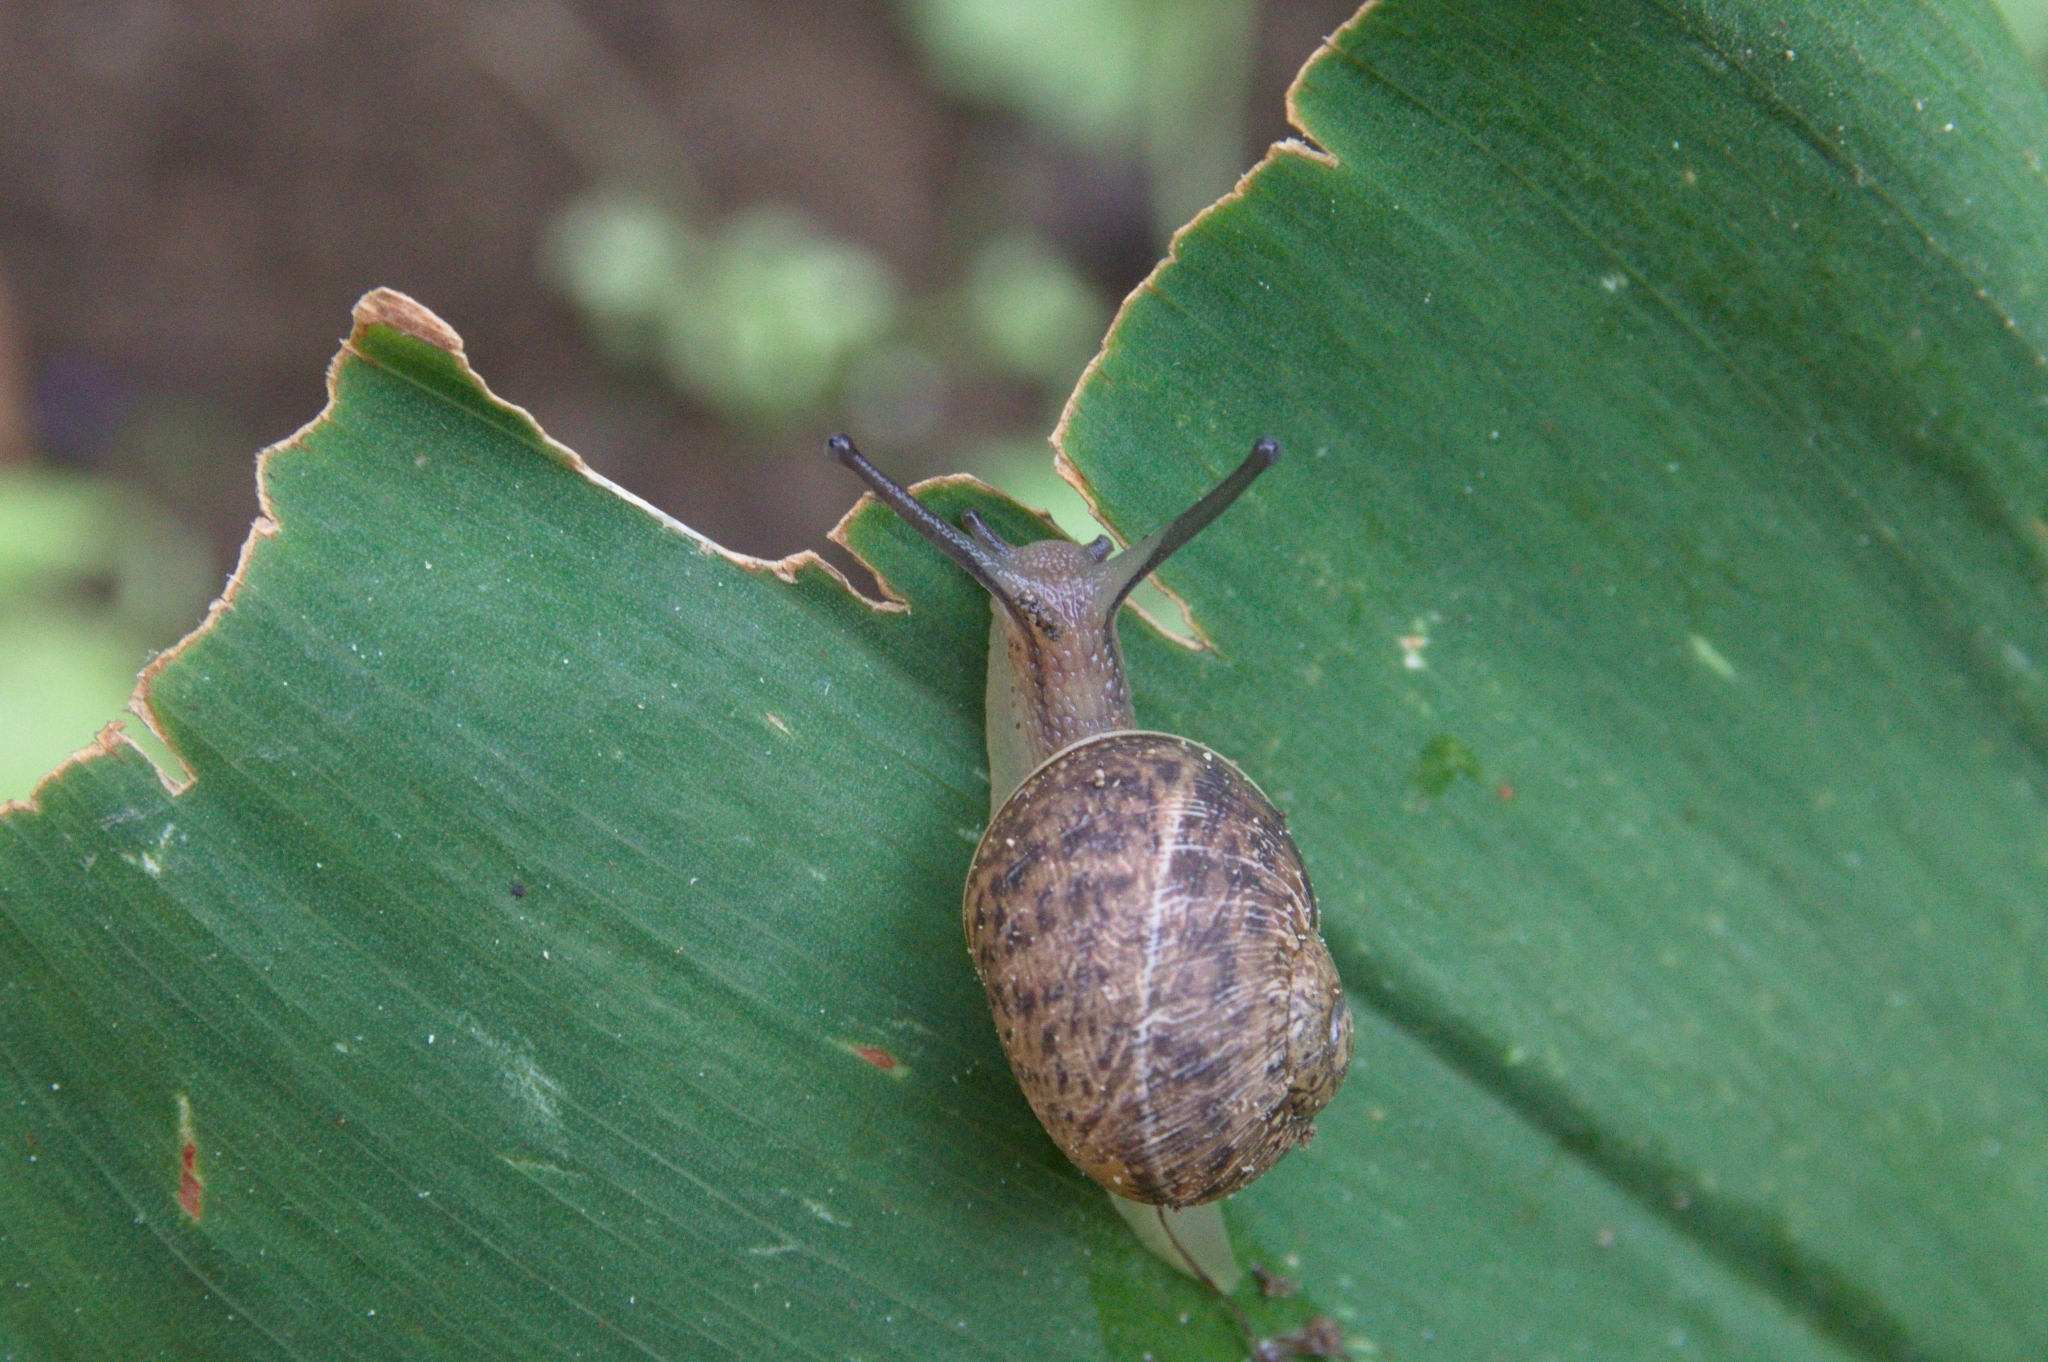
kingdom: Animalia
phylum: Mollusca
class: Gastropoda
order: Stylommatophora
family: Helicidae
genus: Cornu
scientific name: Cornu aspersum
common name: Brown garden snail
